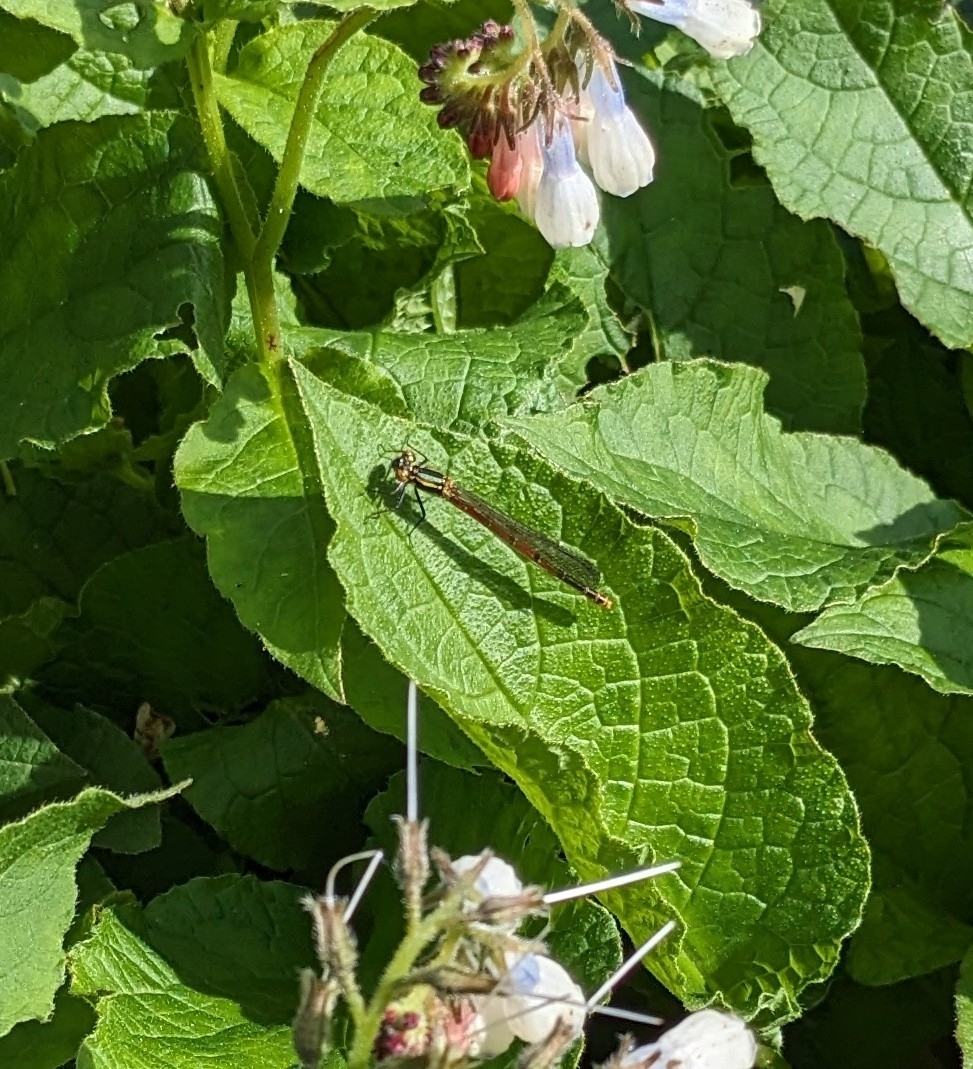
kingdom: Animalia
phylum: Arthropoda
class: Insecta
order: Odonata
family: Coenagrionidae
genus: Pyrrhosoma
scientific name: Pyrrhosoma nymphula
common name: Large red damsel
